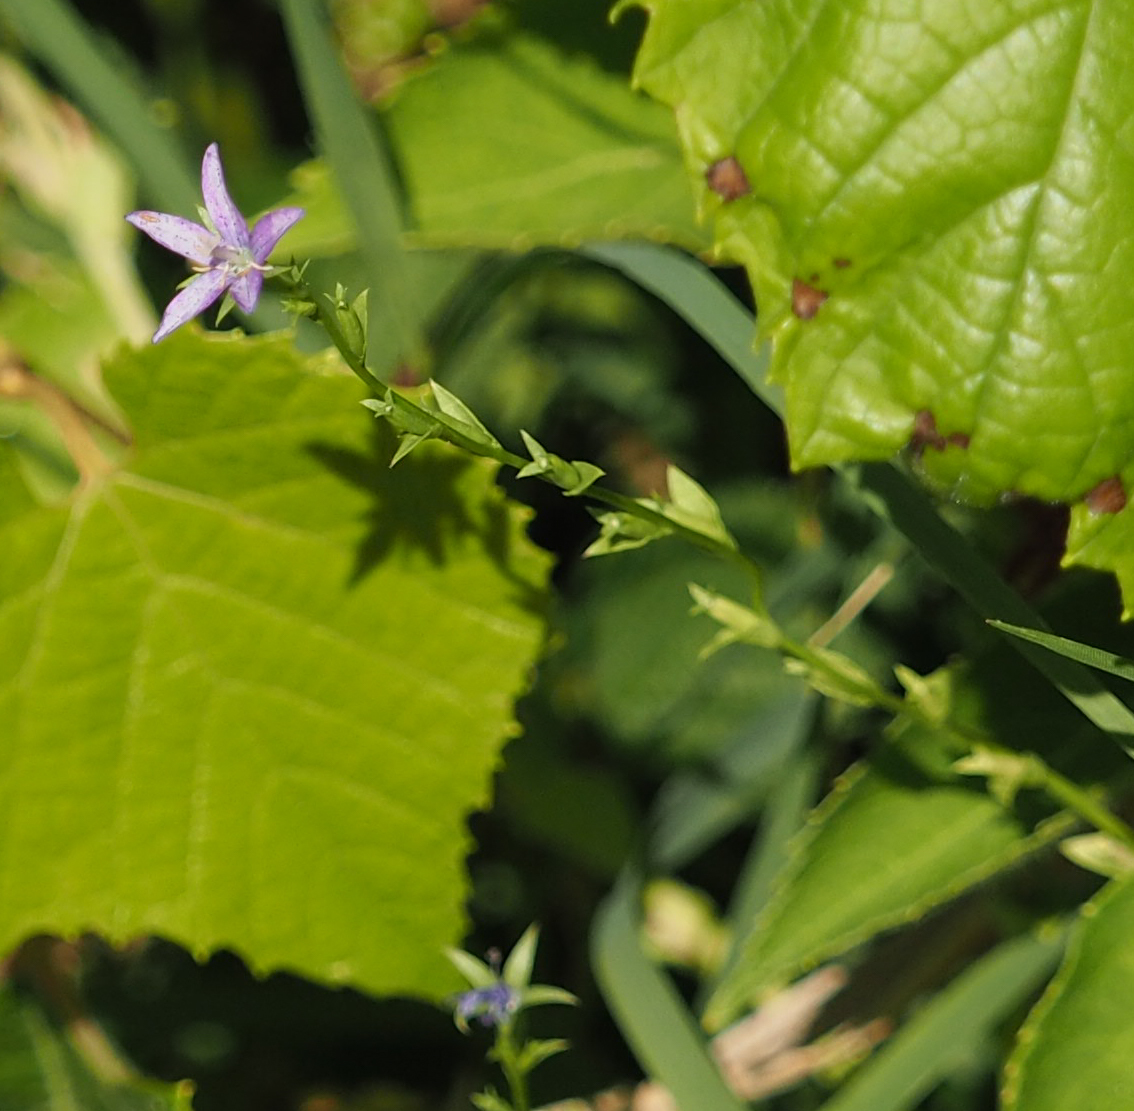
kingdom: Plantae
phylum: Tracheophyta
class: Magnoliopsida
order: Asterales
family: Campanulaceae
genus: Triodanis
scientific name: Triodanis biflora
